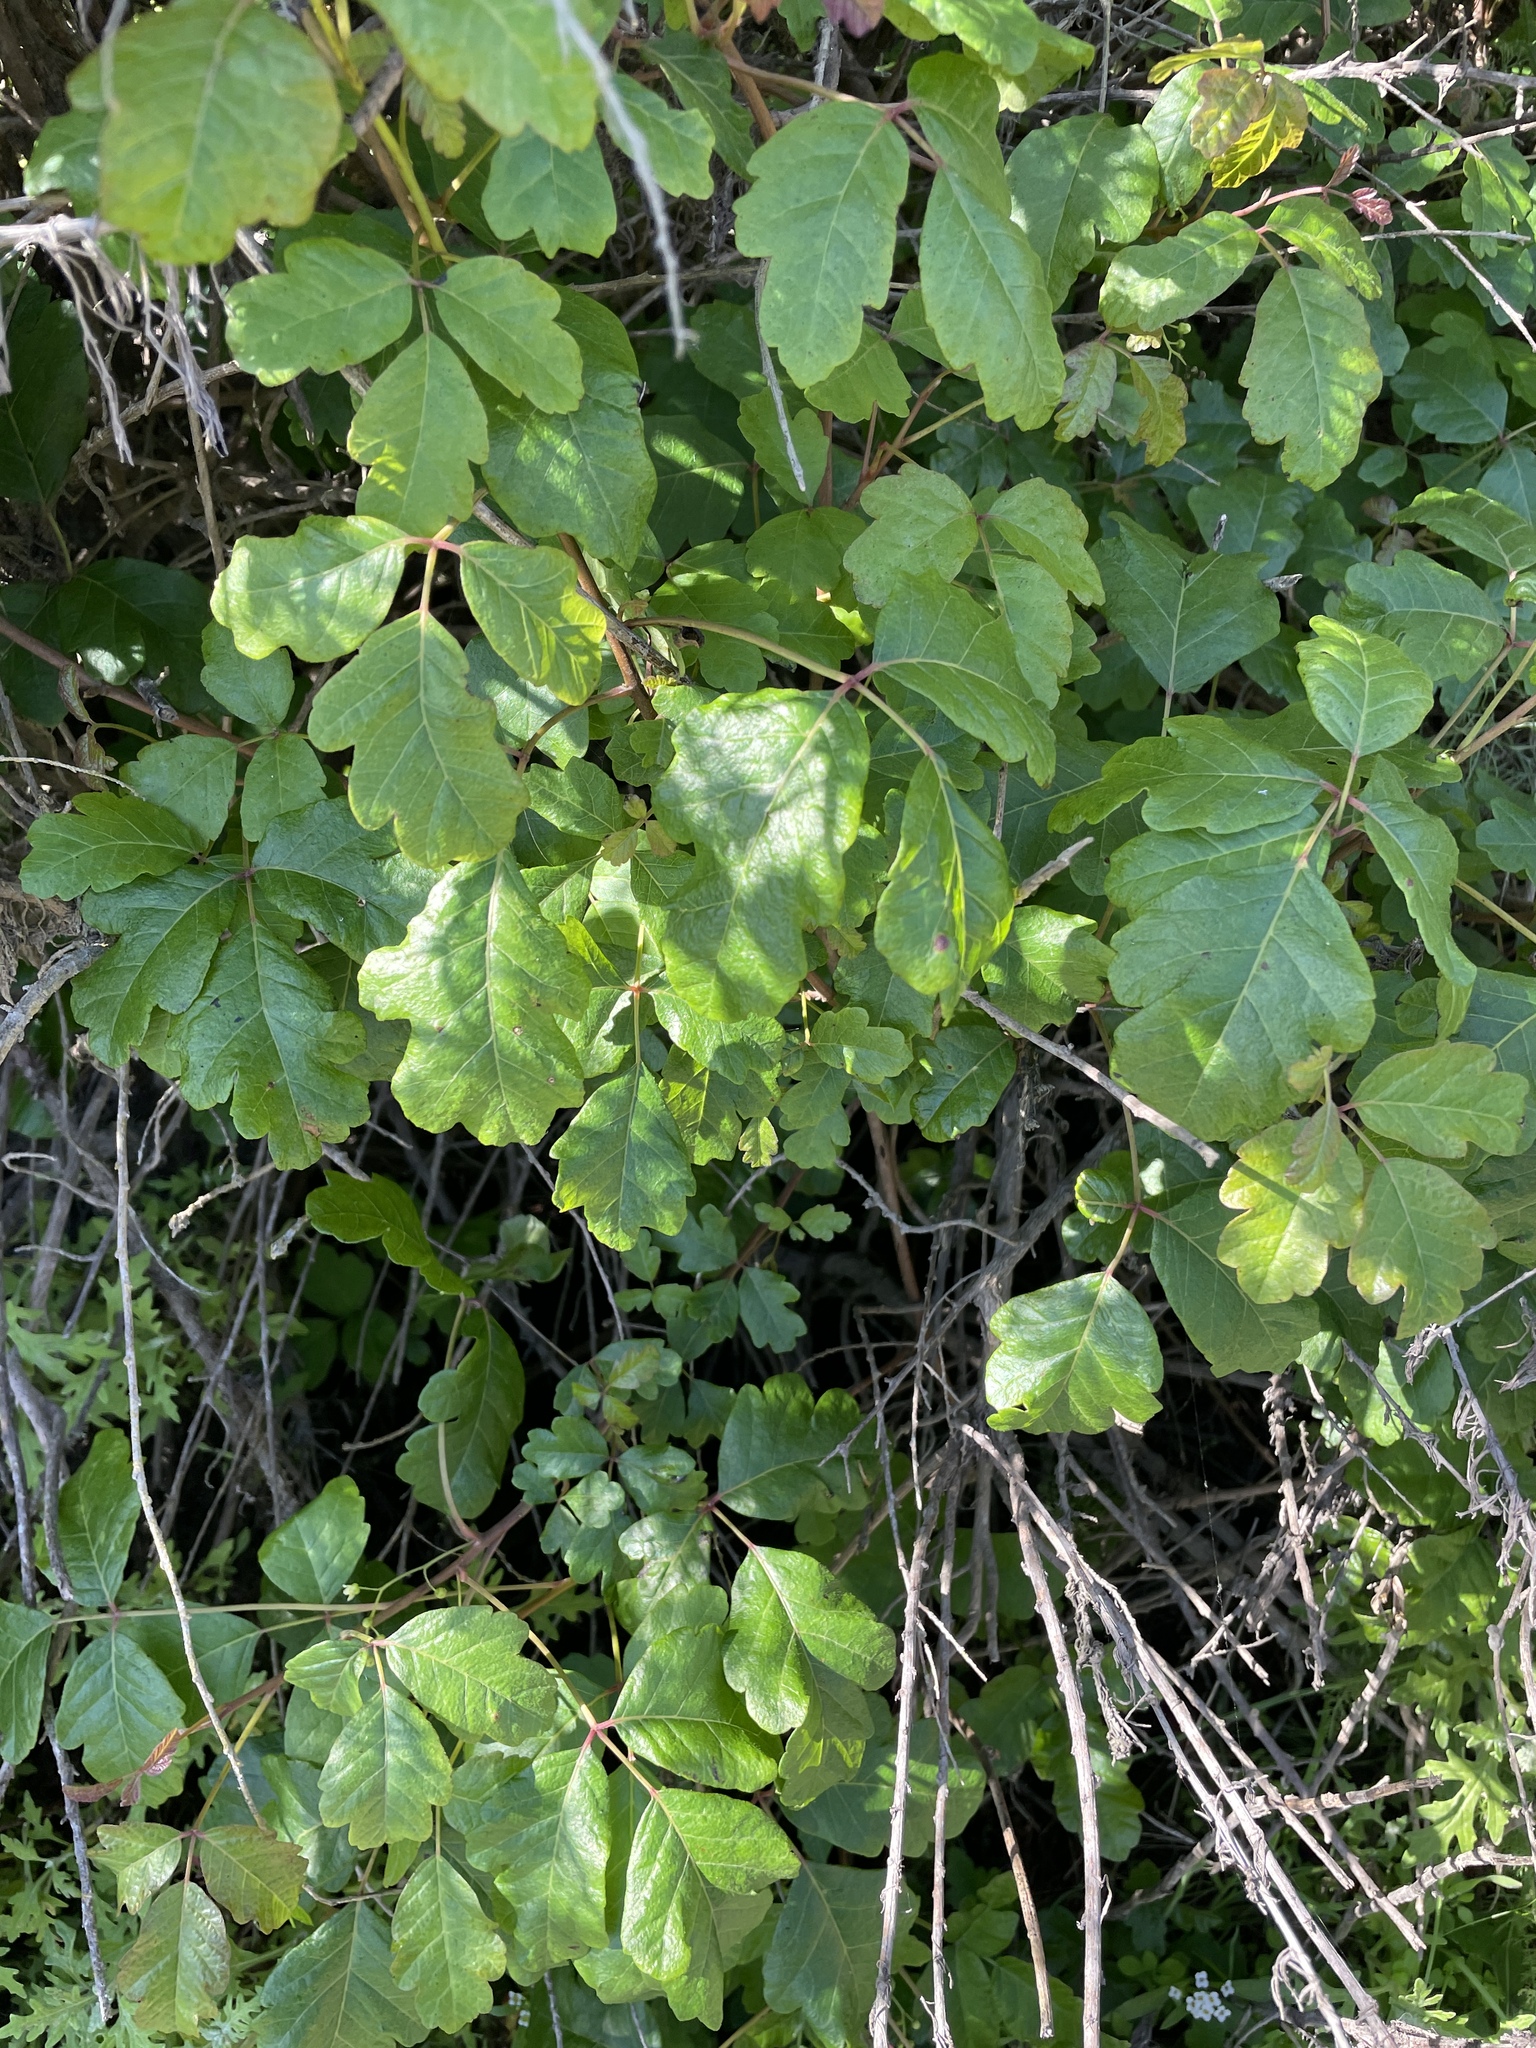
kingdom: Plantae
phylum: Tracheophyta
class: Magnoliopsida
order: Sapindales
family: Anacardiaceae
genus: Toxicodendron
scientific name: Toxicodendron diversilobum
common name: Pacific poison-oak
